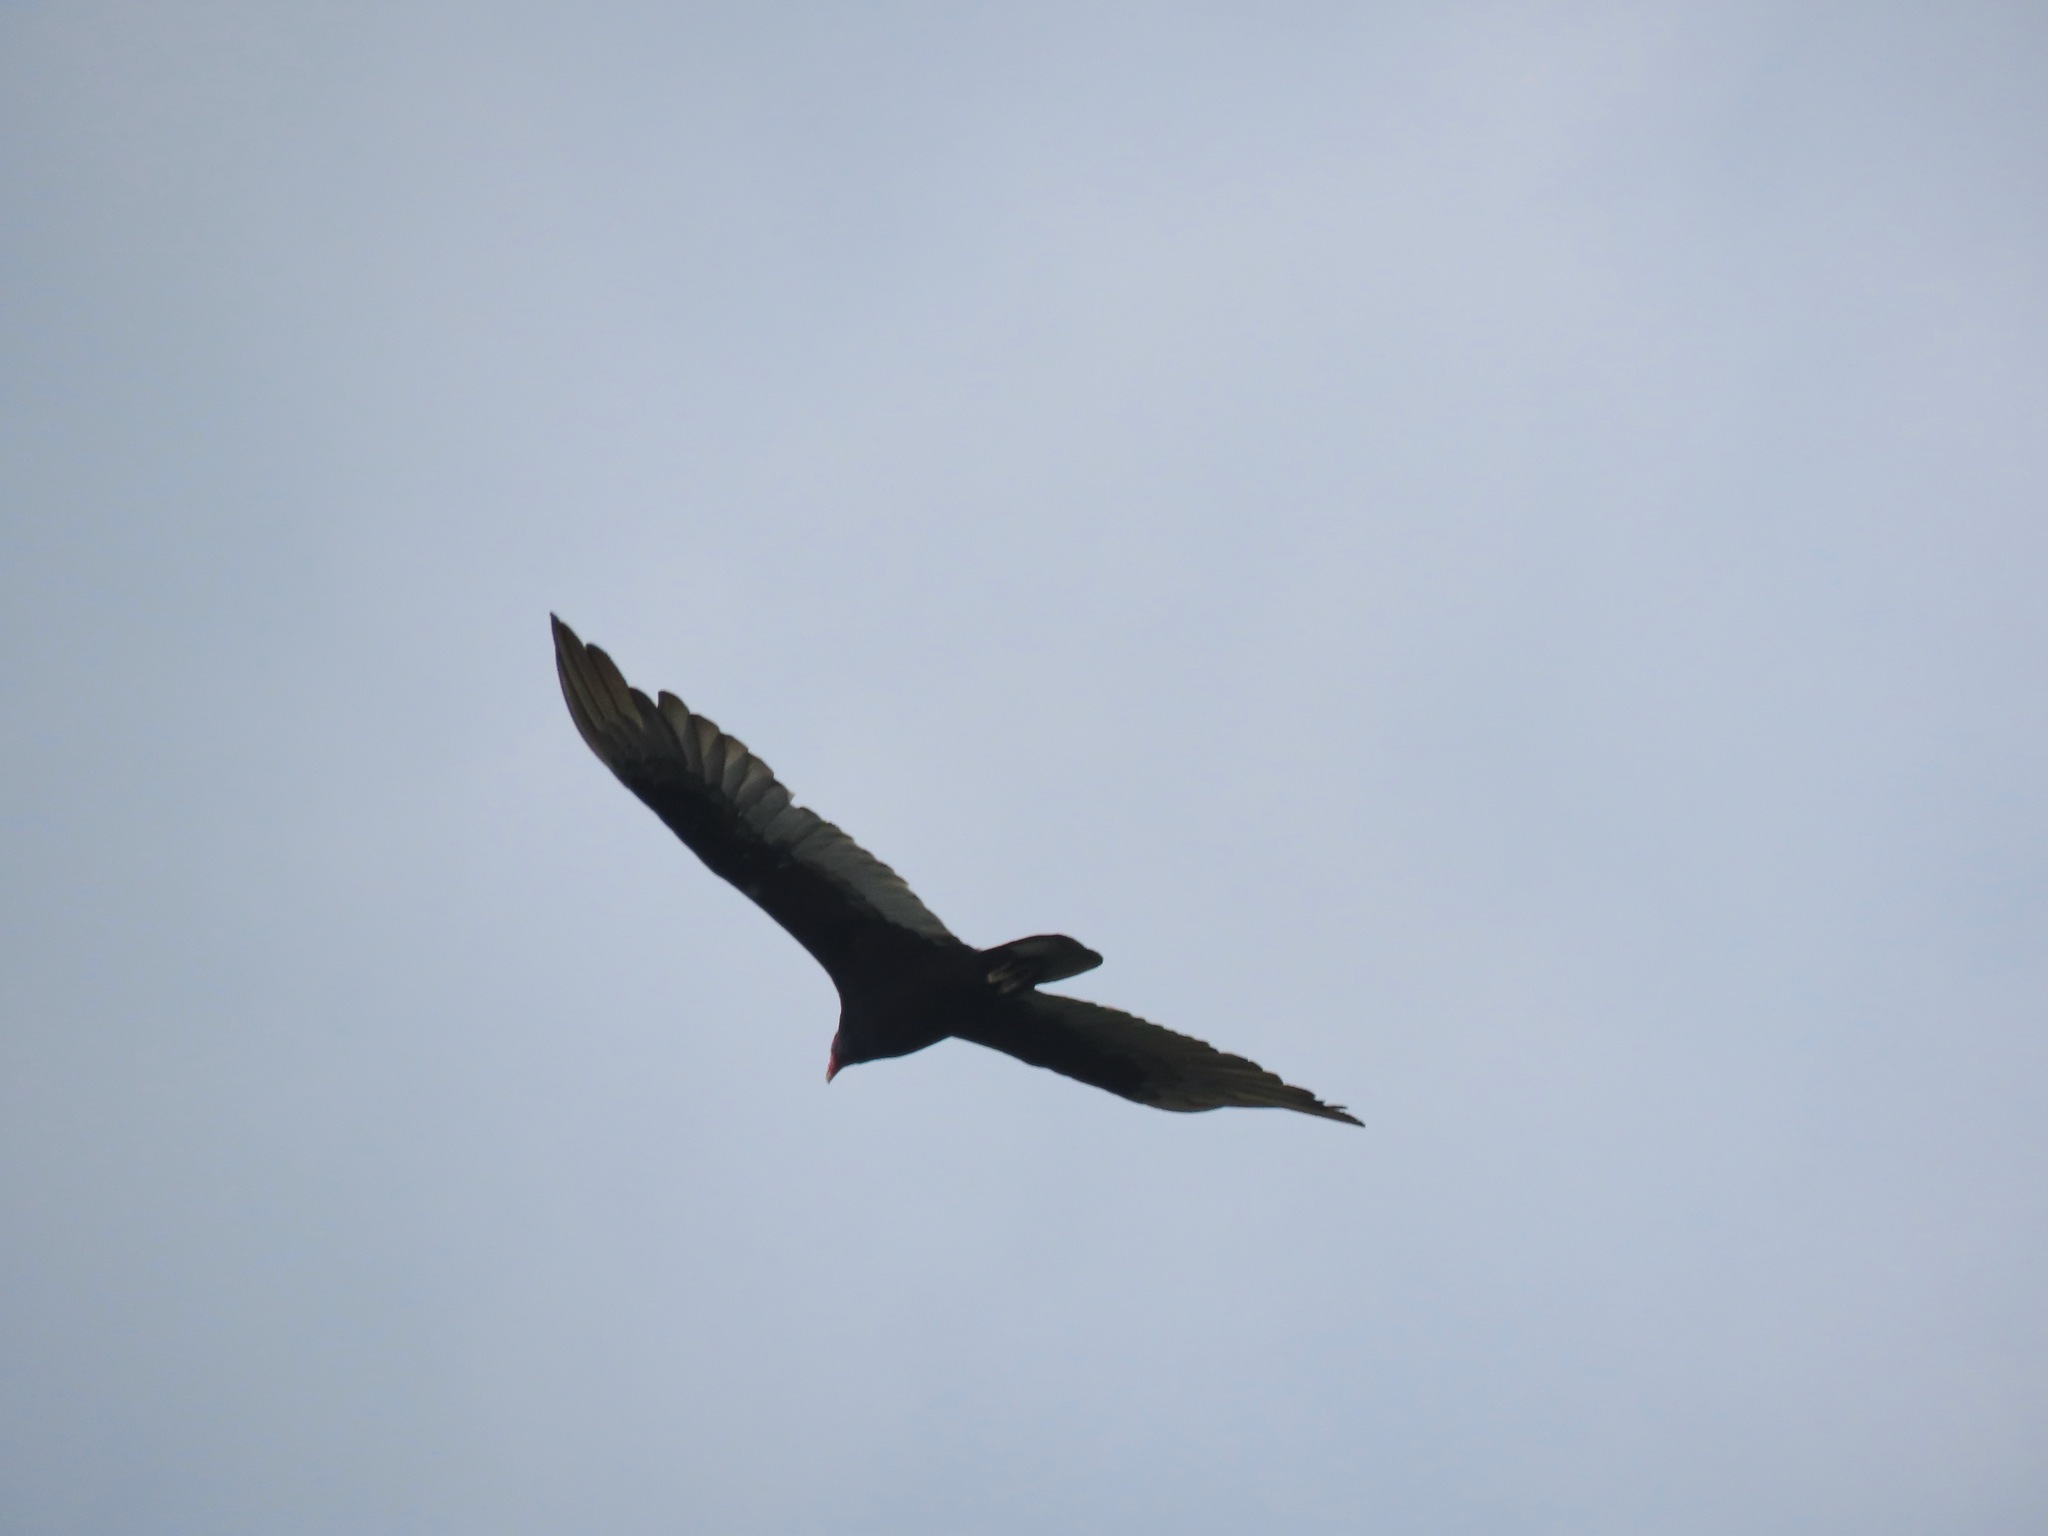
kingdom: Animalia
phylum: Chordata
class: Aves
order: Accipitriformes
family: Cathartidae
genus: Cathartes
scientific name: Cathartes aura
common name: Turkey vulture
